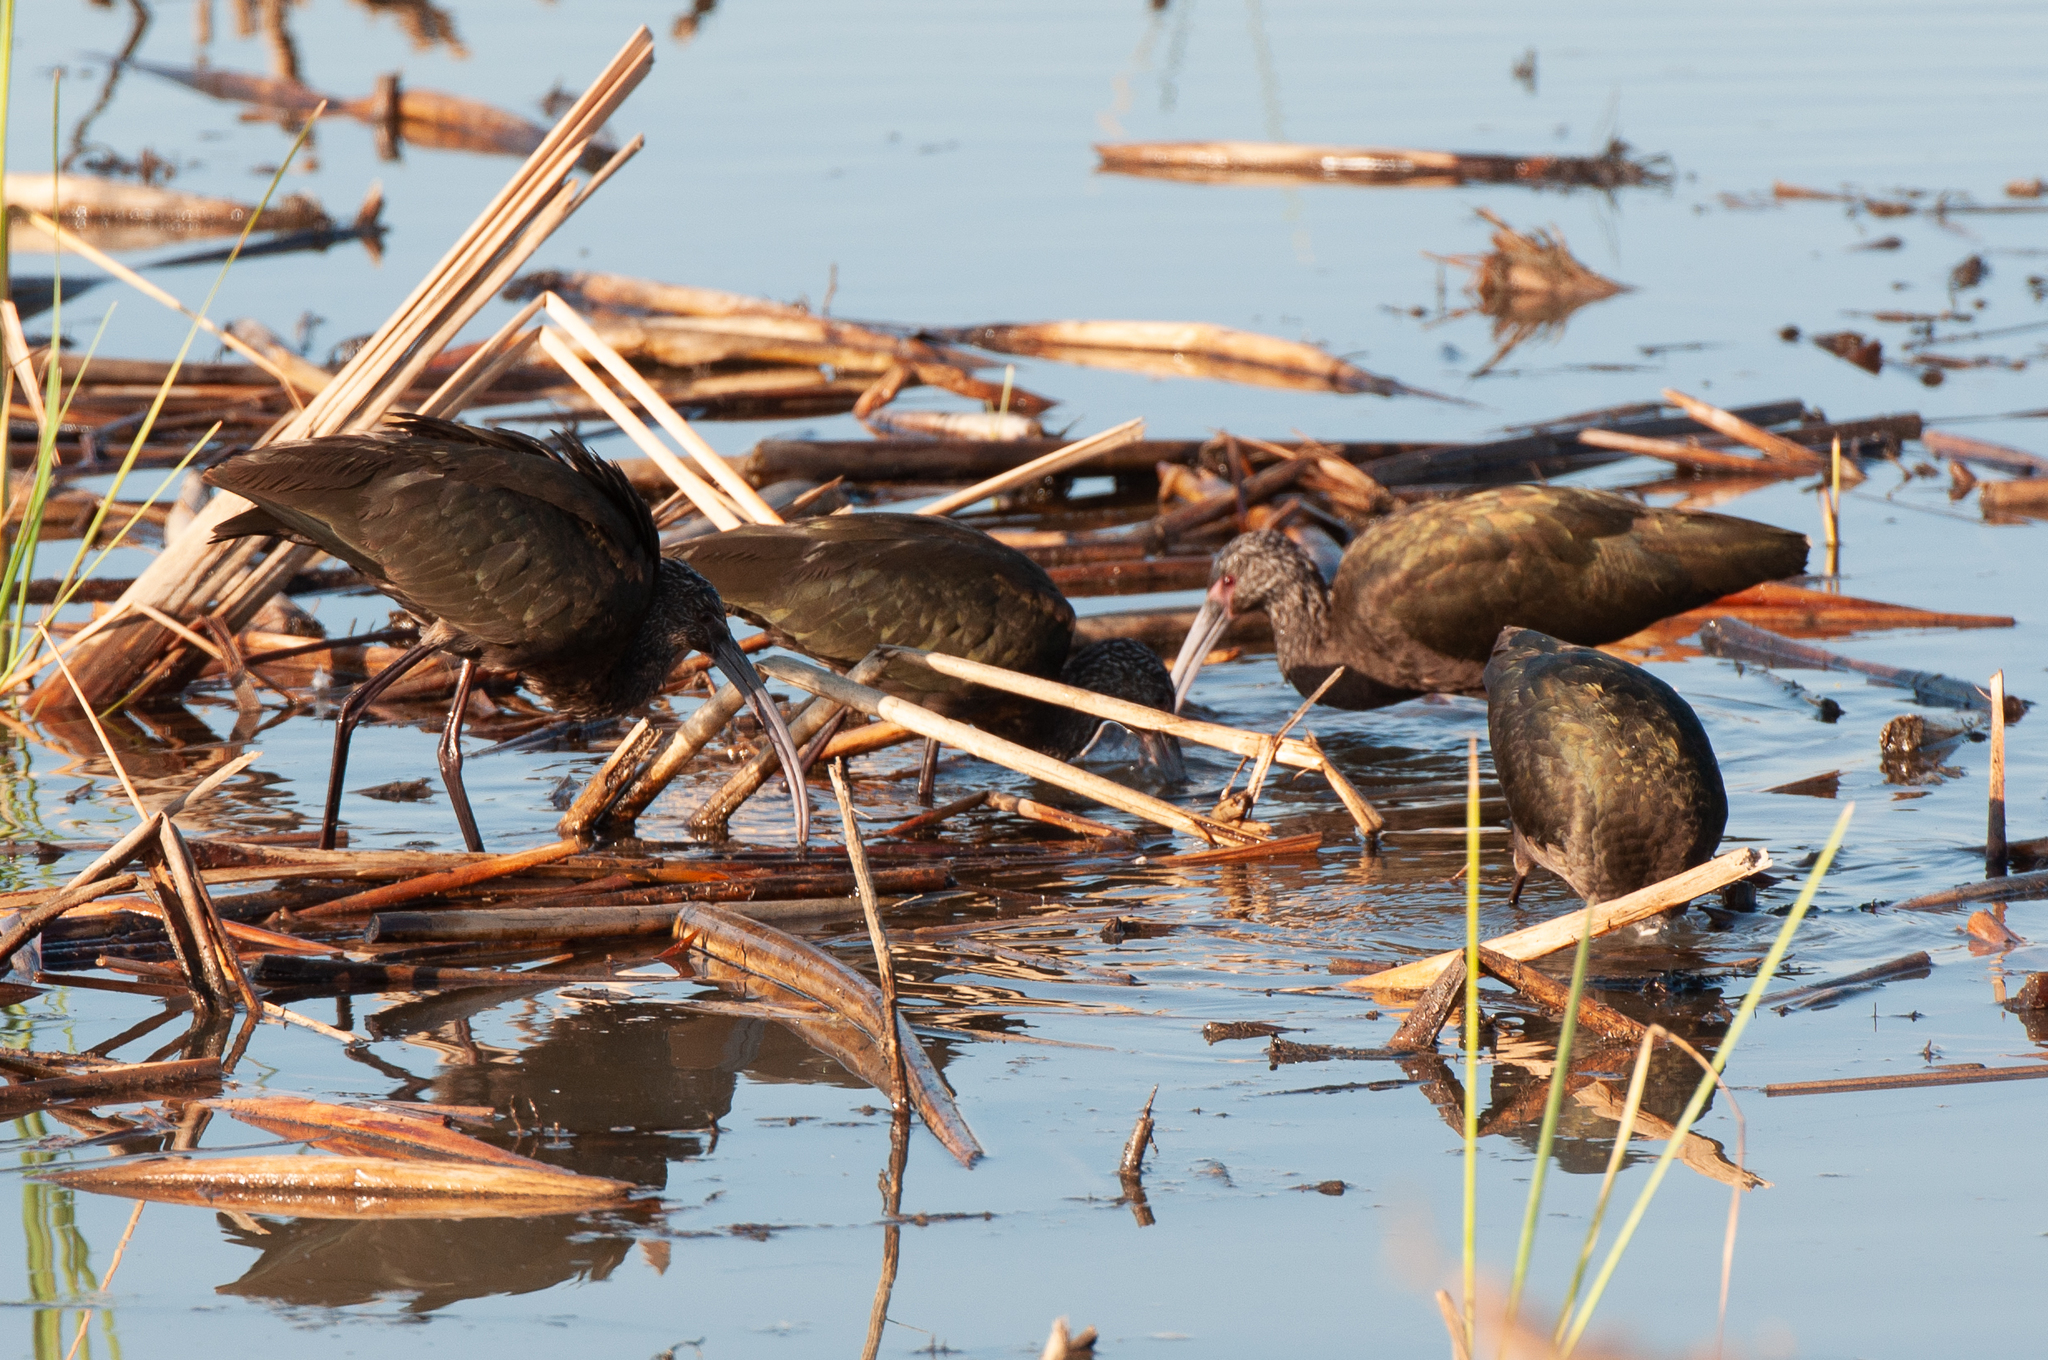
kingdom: Animalia
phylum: Chordata
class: Aves
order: Pelecaniformes
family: Threskiornithidae
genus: Plegadis
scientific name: Plegadis chihi
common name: White-faced ibis
